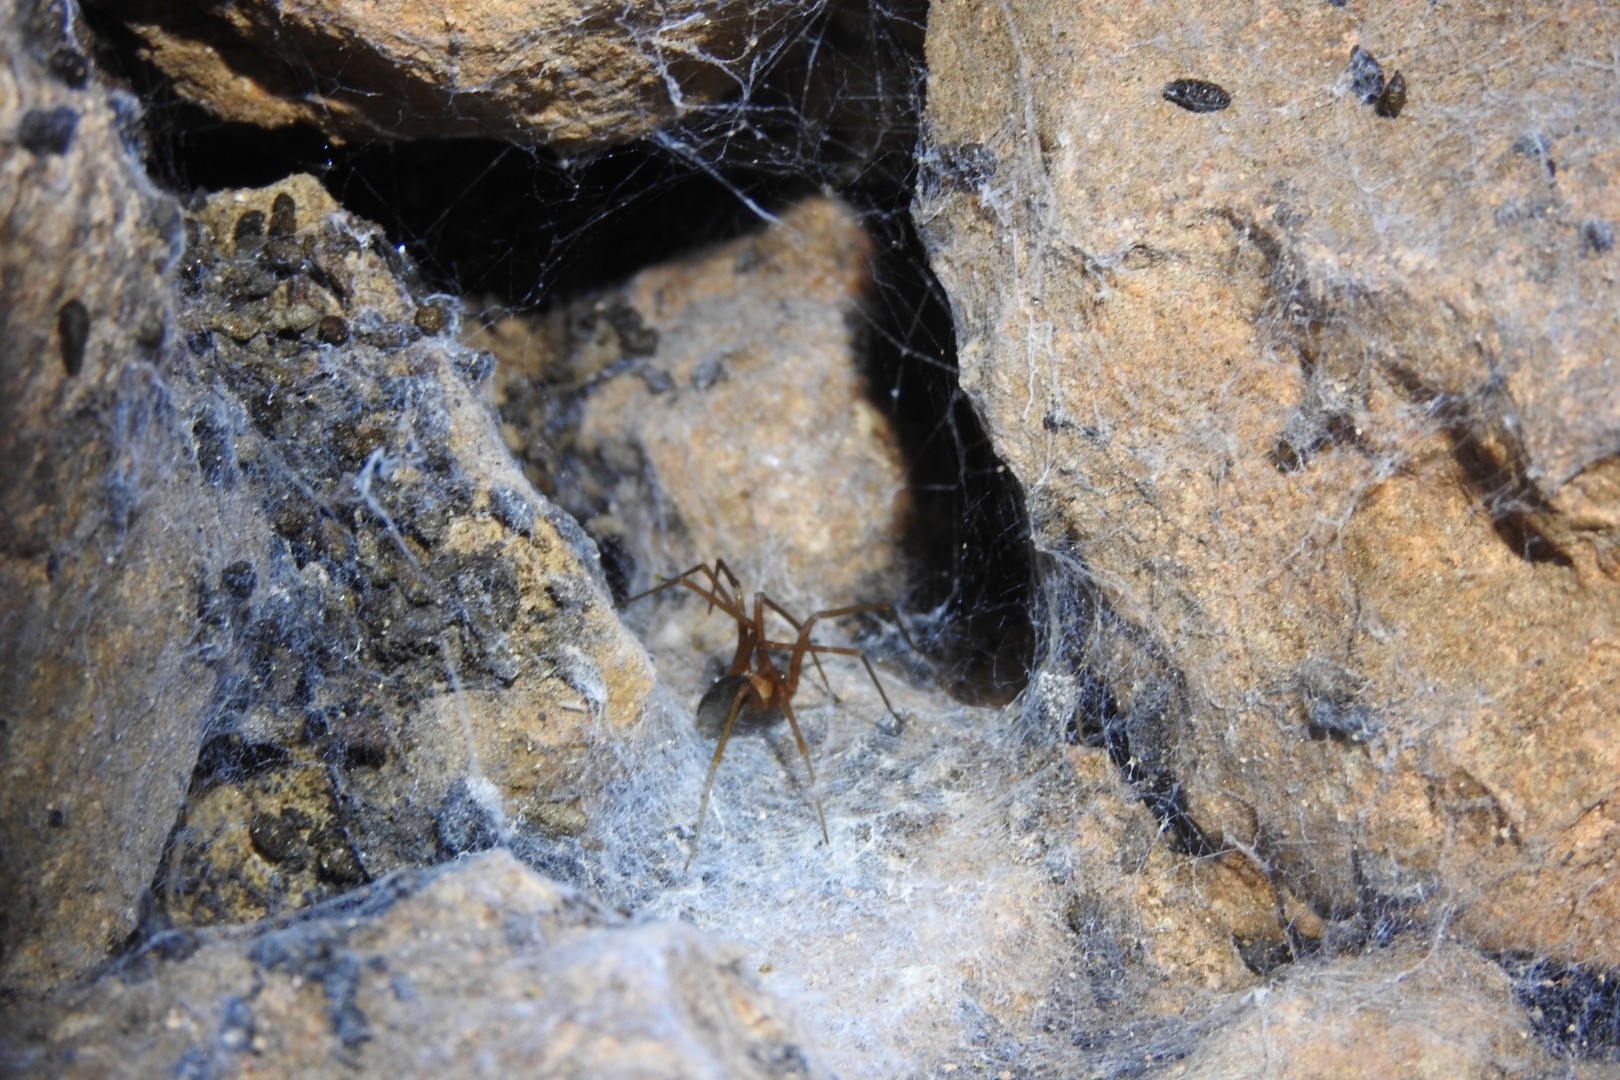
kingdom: Animalia
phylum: Arthropoda
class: Arachnida
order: Araneae
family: Sicariidae
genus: Loxosceles
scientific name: Loxosceles yucatana
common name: Violin spiders
